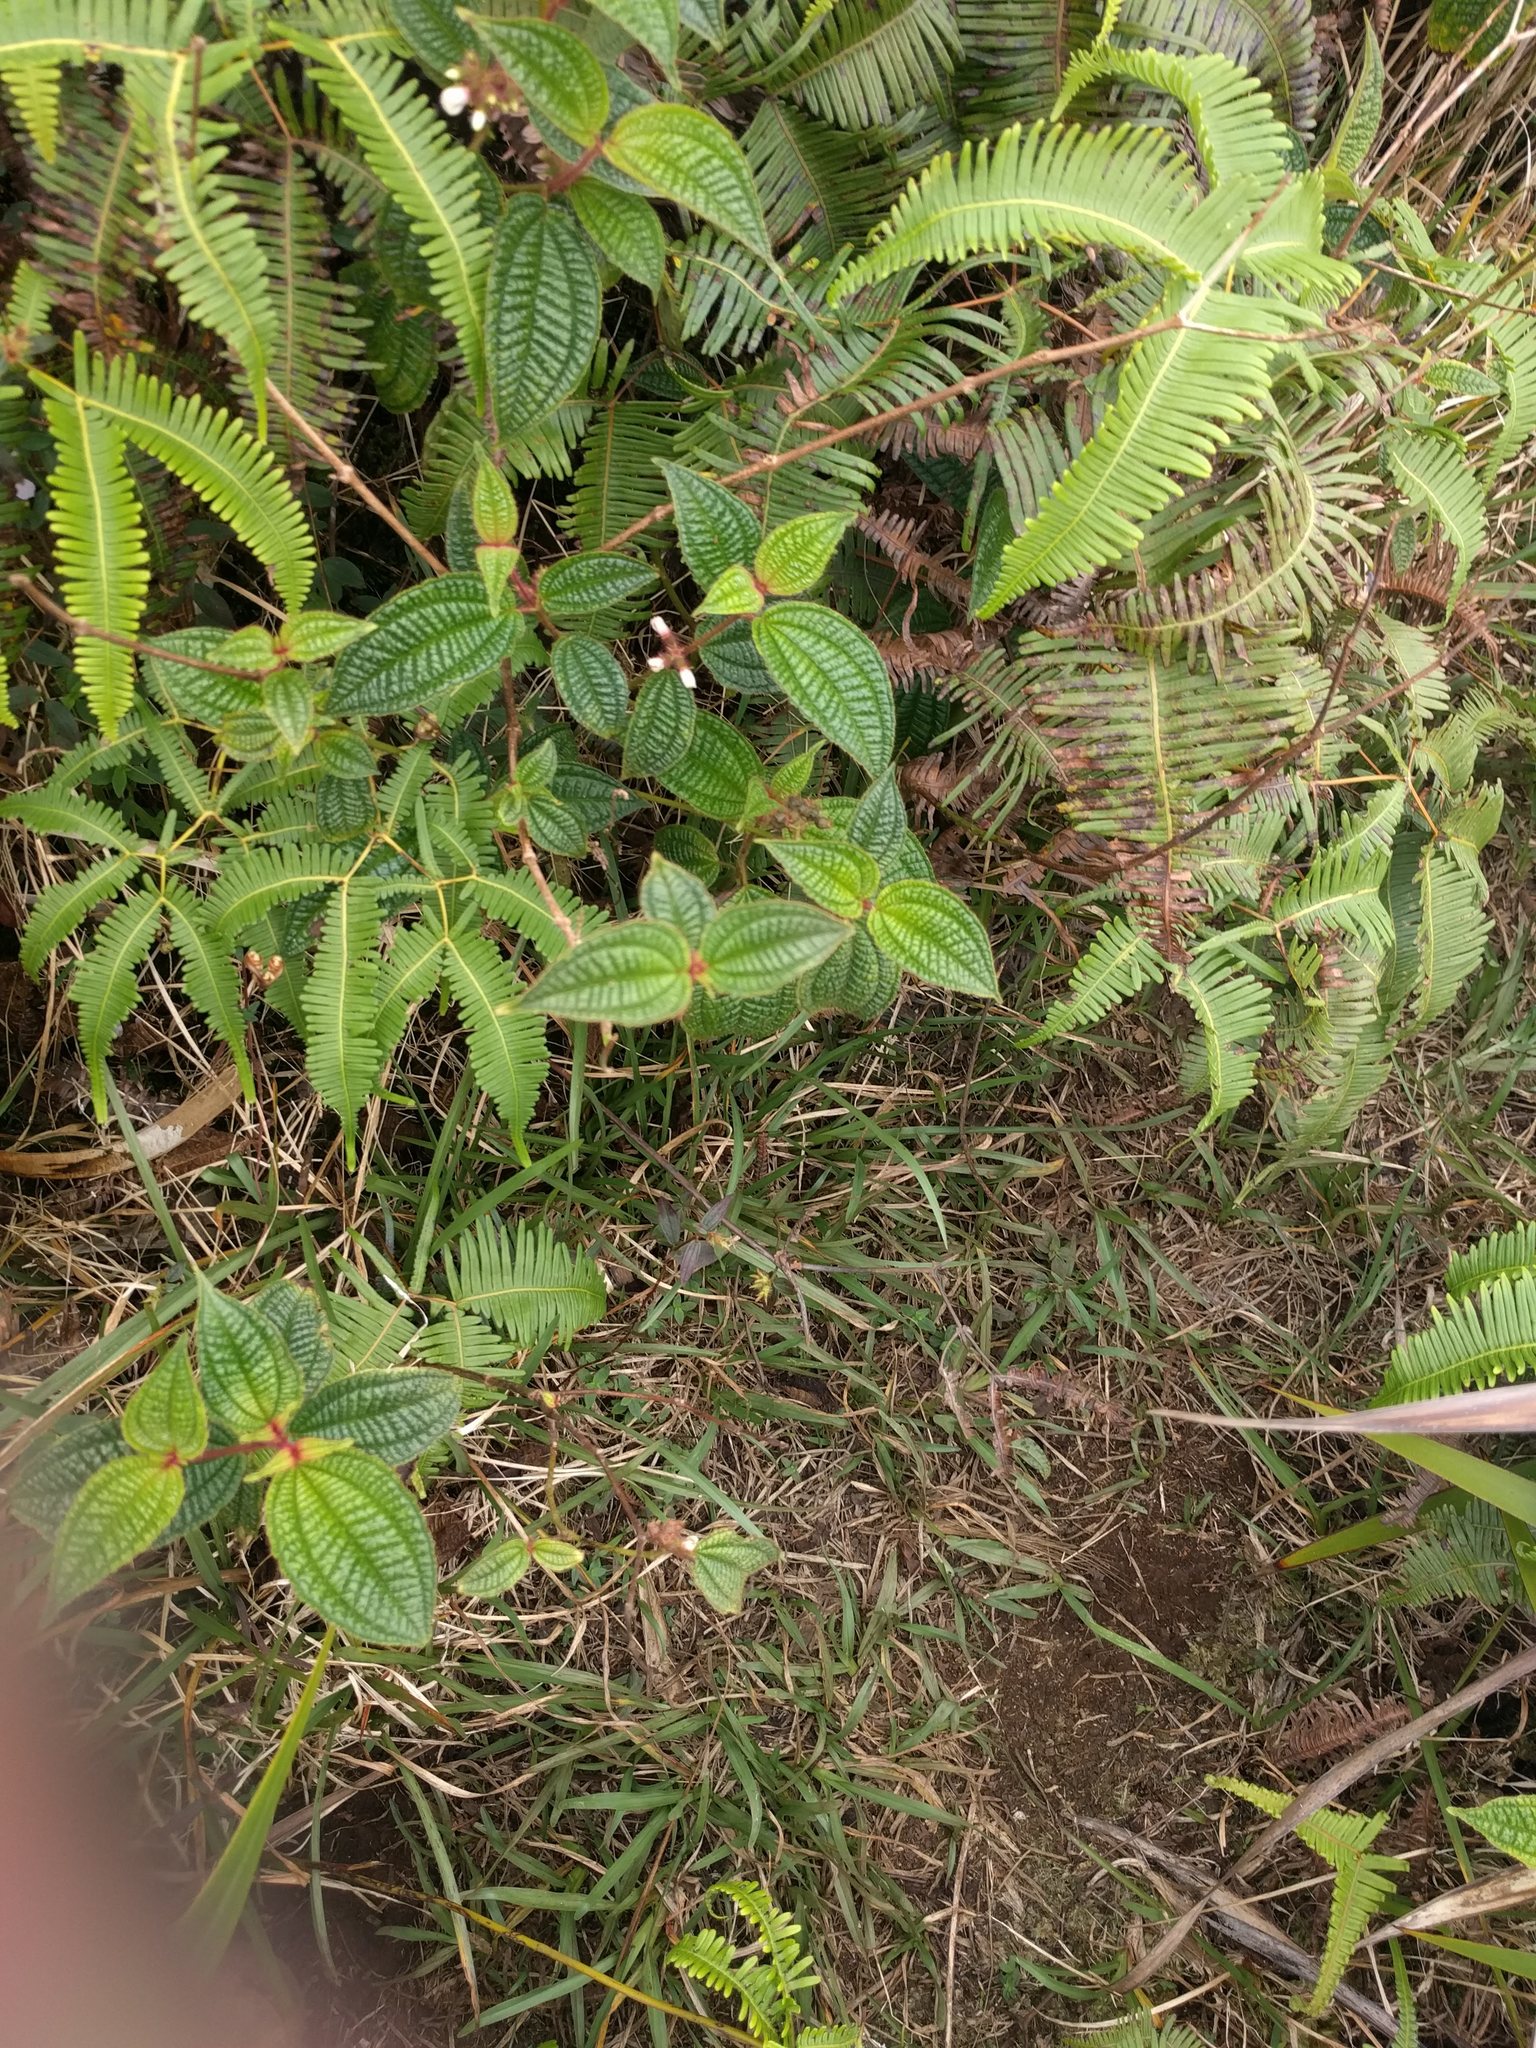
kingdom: Plantae
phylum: Tracheophyta
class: Magnoliopsida
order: Myrtales
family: Melastomataceae
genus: Miconia
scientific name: Miconia crenata
